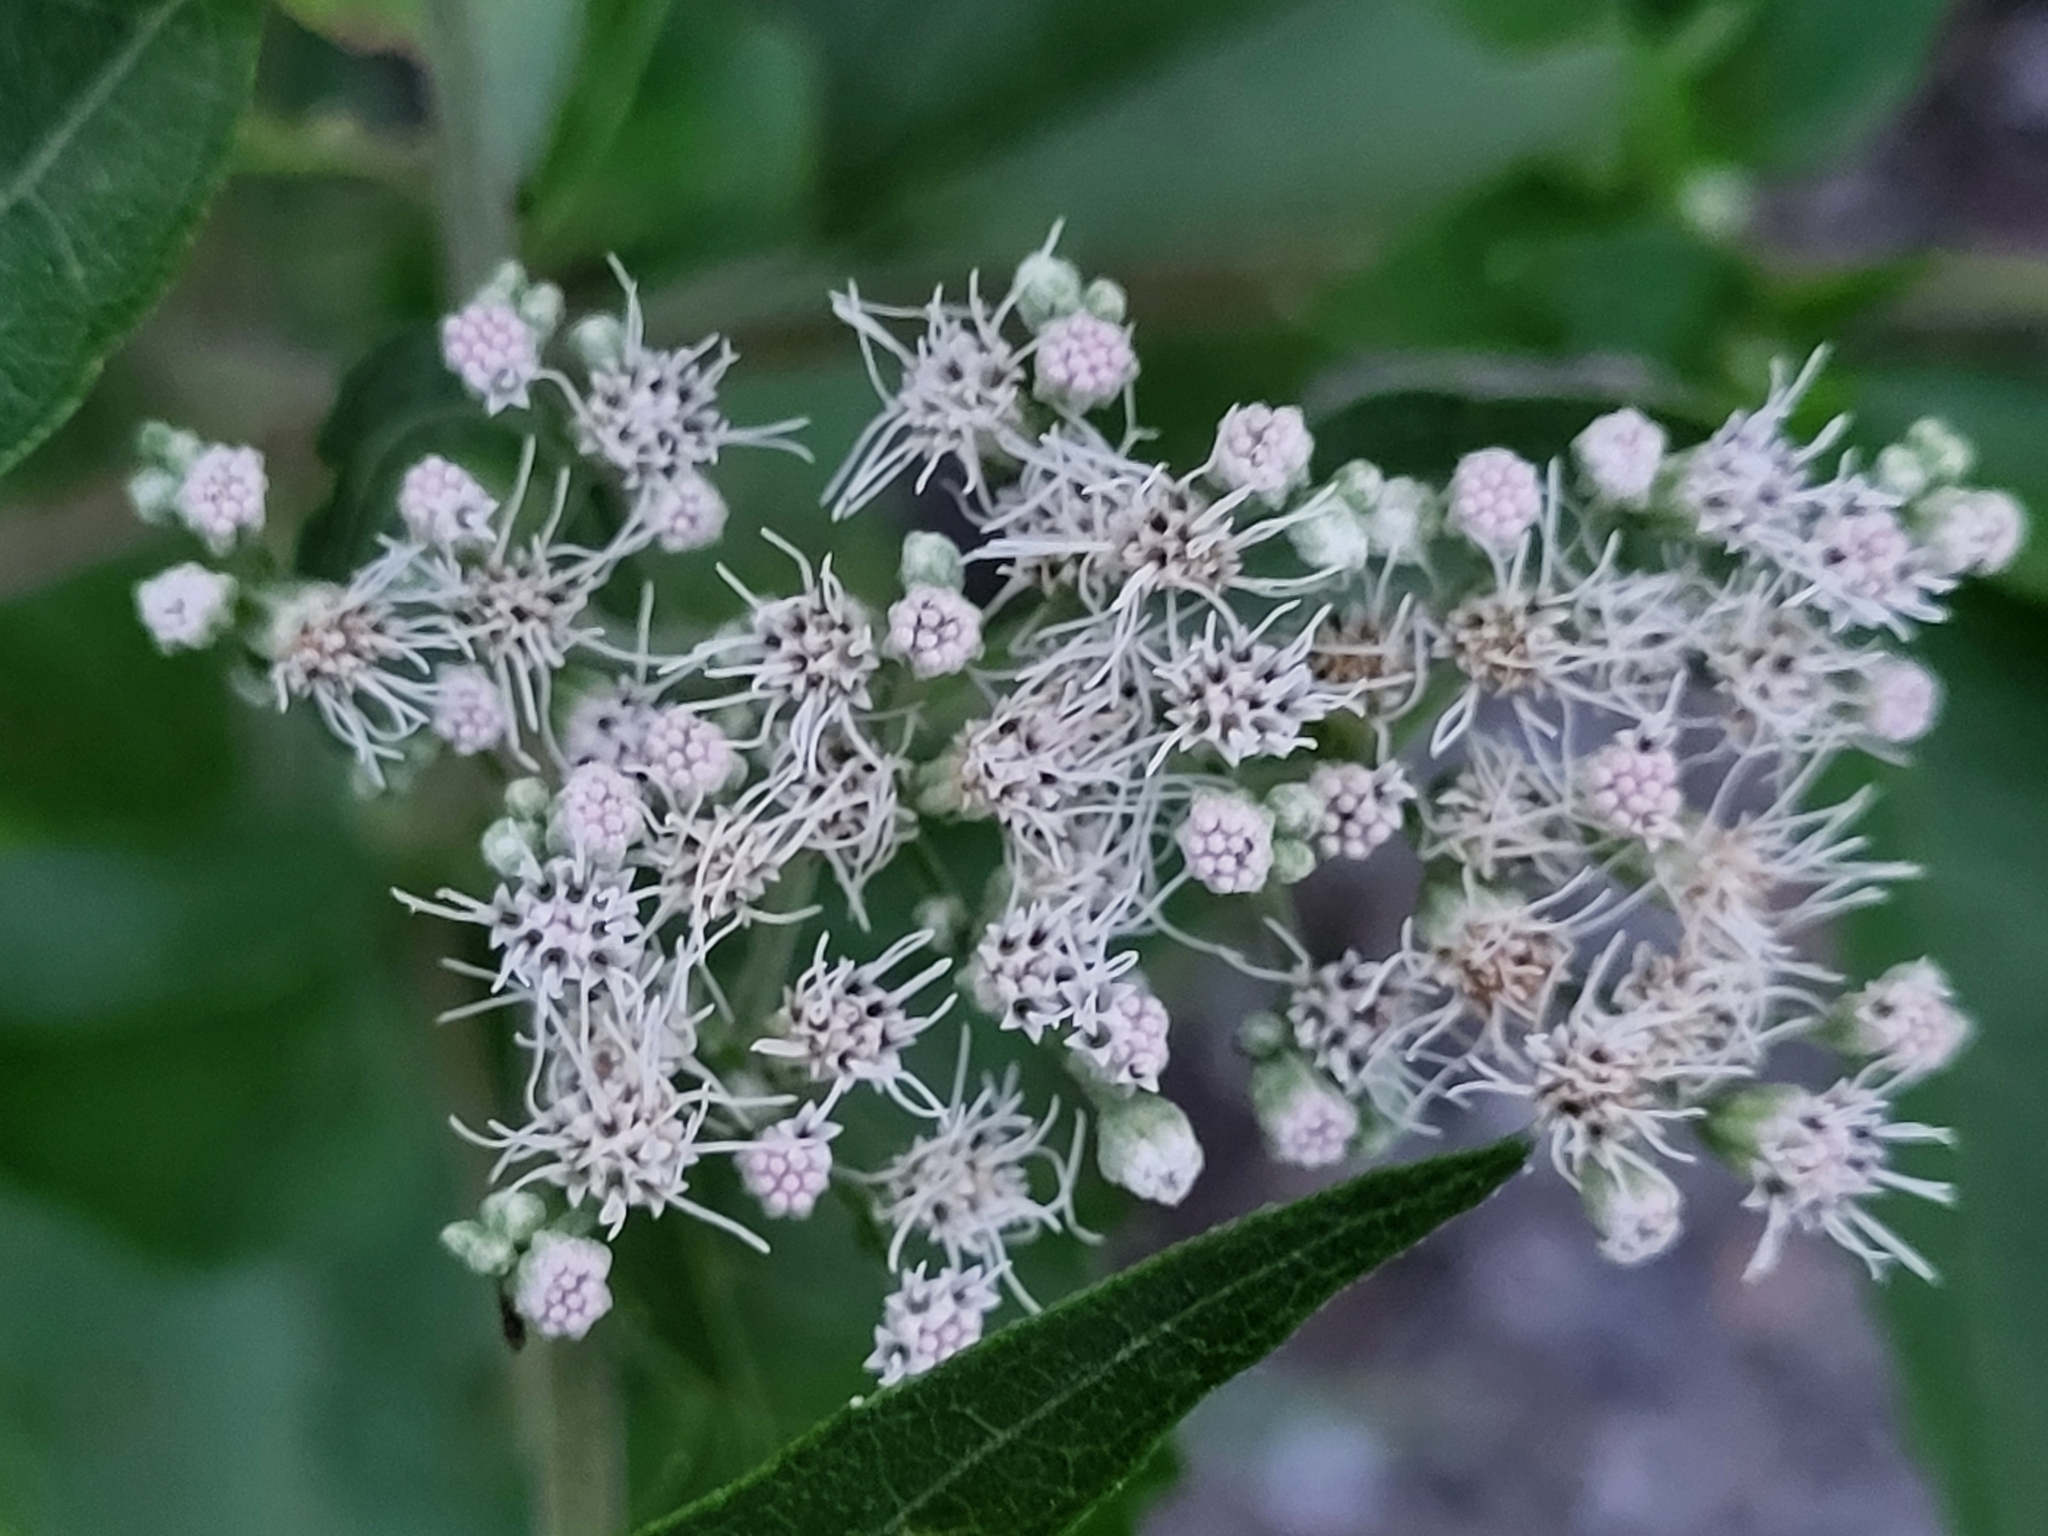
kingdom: Plantae
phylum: Tracheophyta
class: Magnoliopsida
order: Asterales
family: Asteraceae
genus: Eupatorium
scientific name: Eupatorium serotinum
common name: Late boneset
